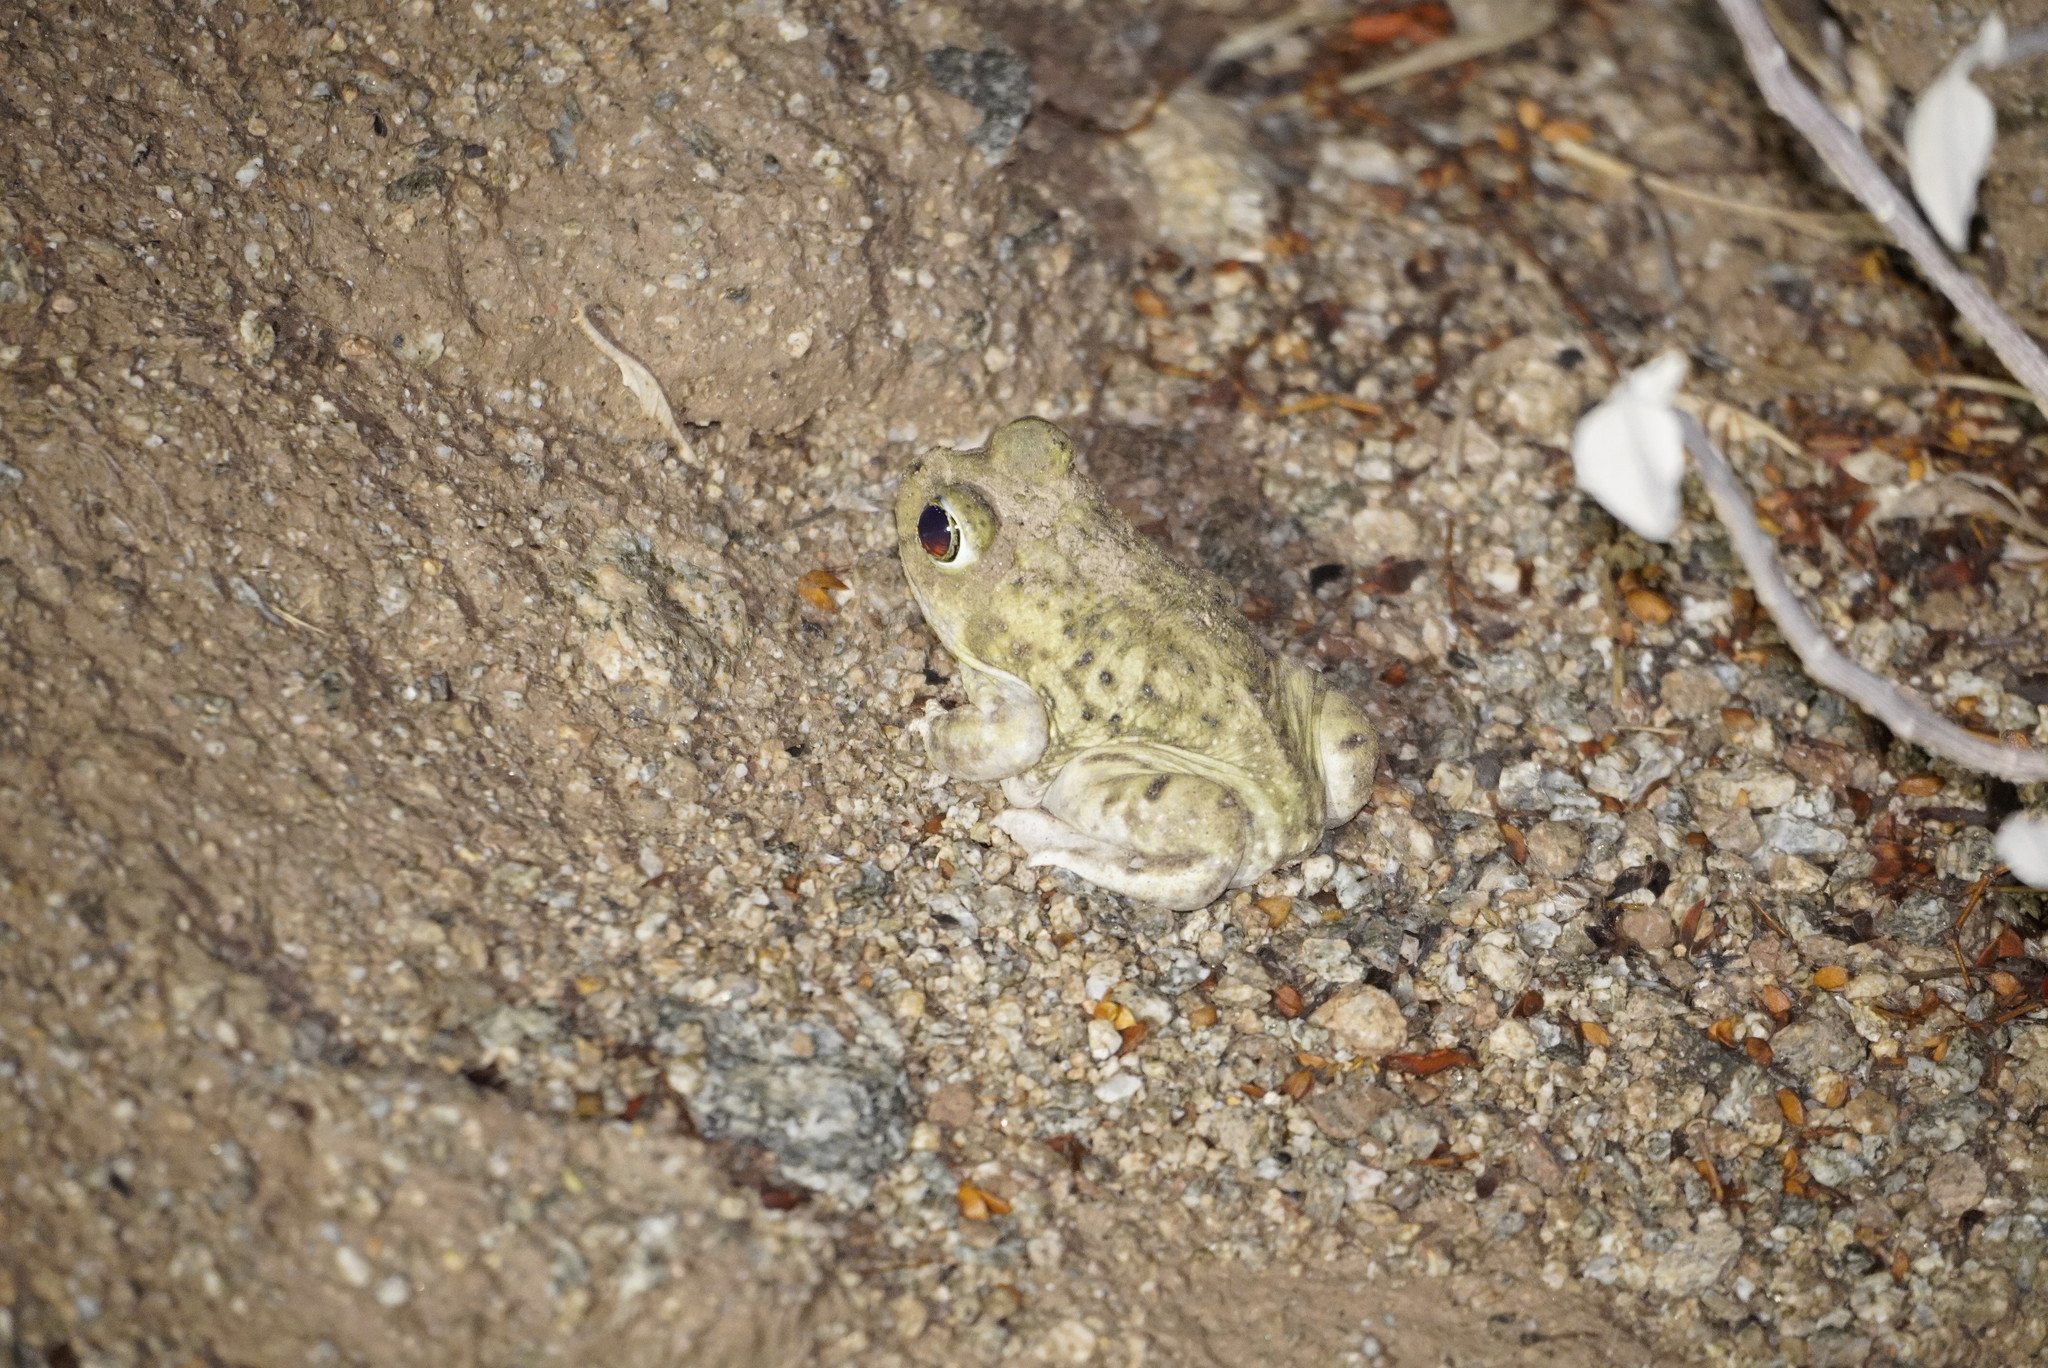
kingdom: Animalia
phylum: Chordata
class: Amphibia
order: Anura
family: Scaphiopodidae
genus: Scaphiopus
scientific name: Scaphiopus couchii
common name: Couch's spadefoot toad
